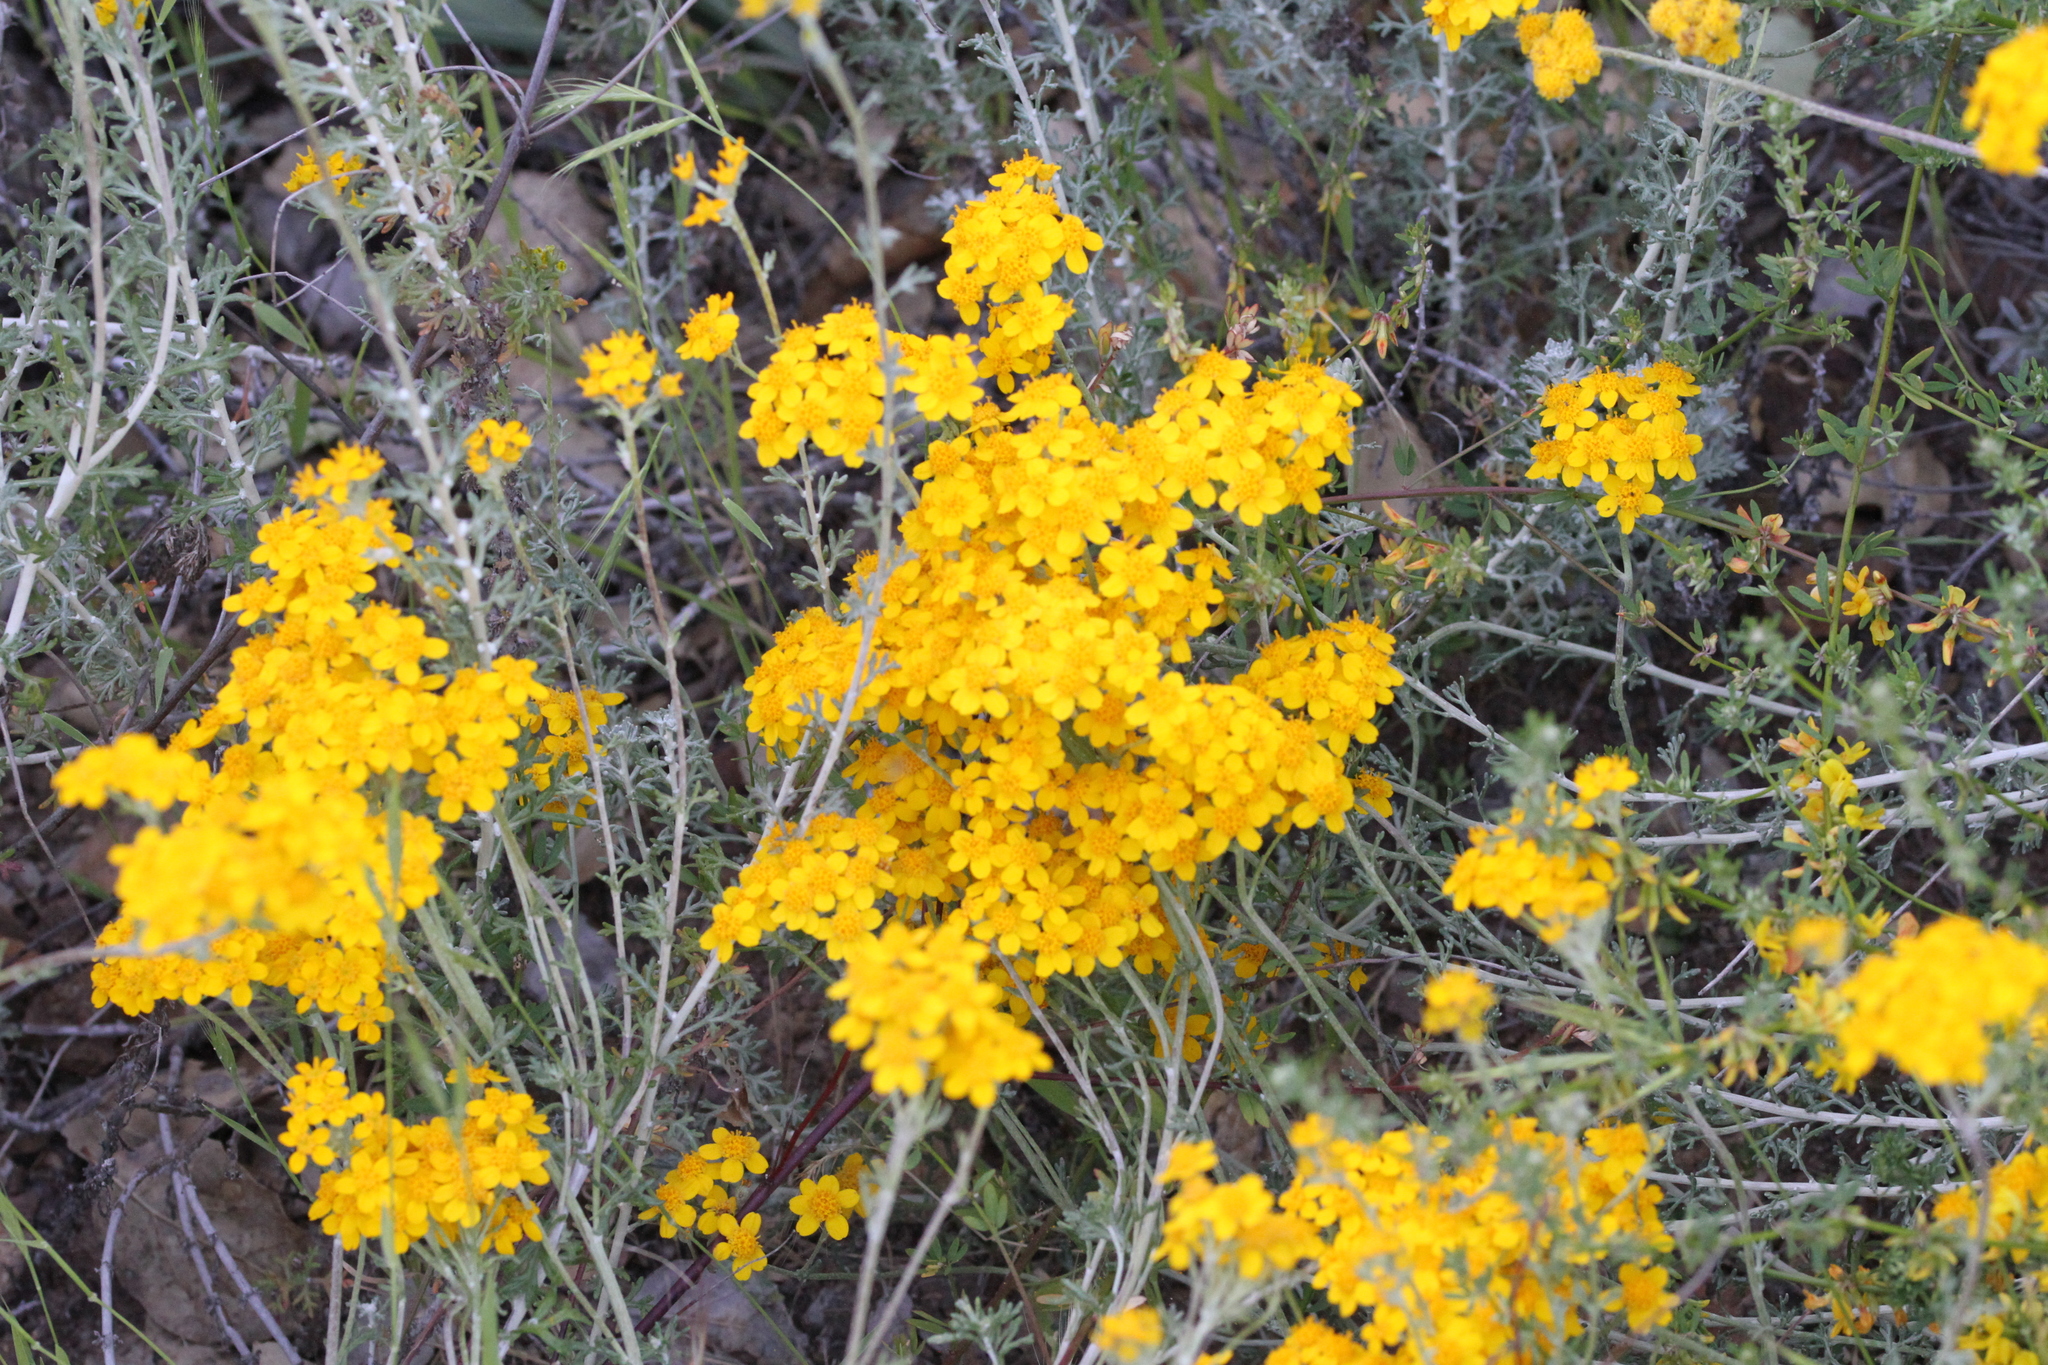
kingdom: Plantae
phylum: Tracheophyta
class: Magnoliopsida
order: Asterales
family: Asteraceae
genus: Eriophyllum
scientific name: Eriophyllum confertiflorum
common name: Golden-yarrow
